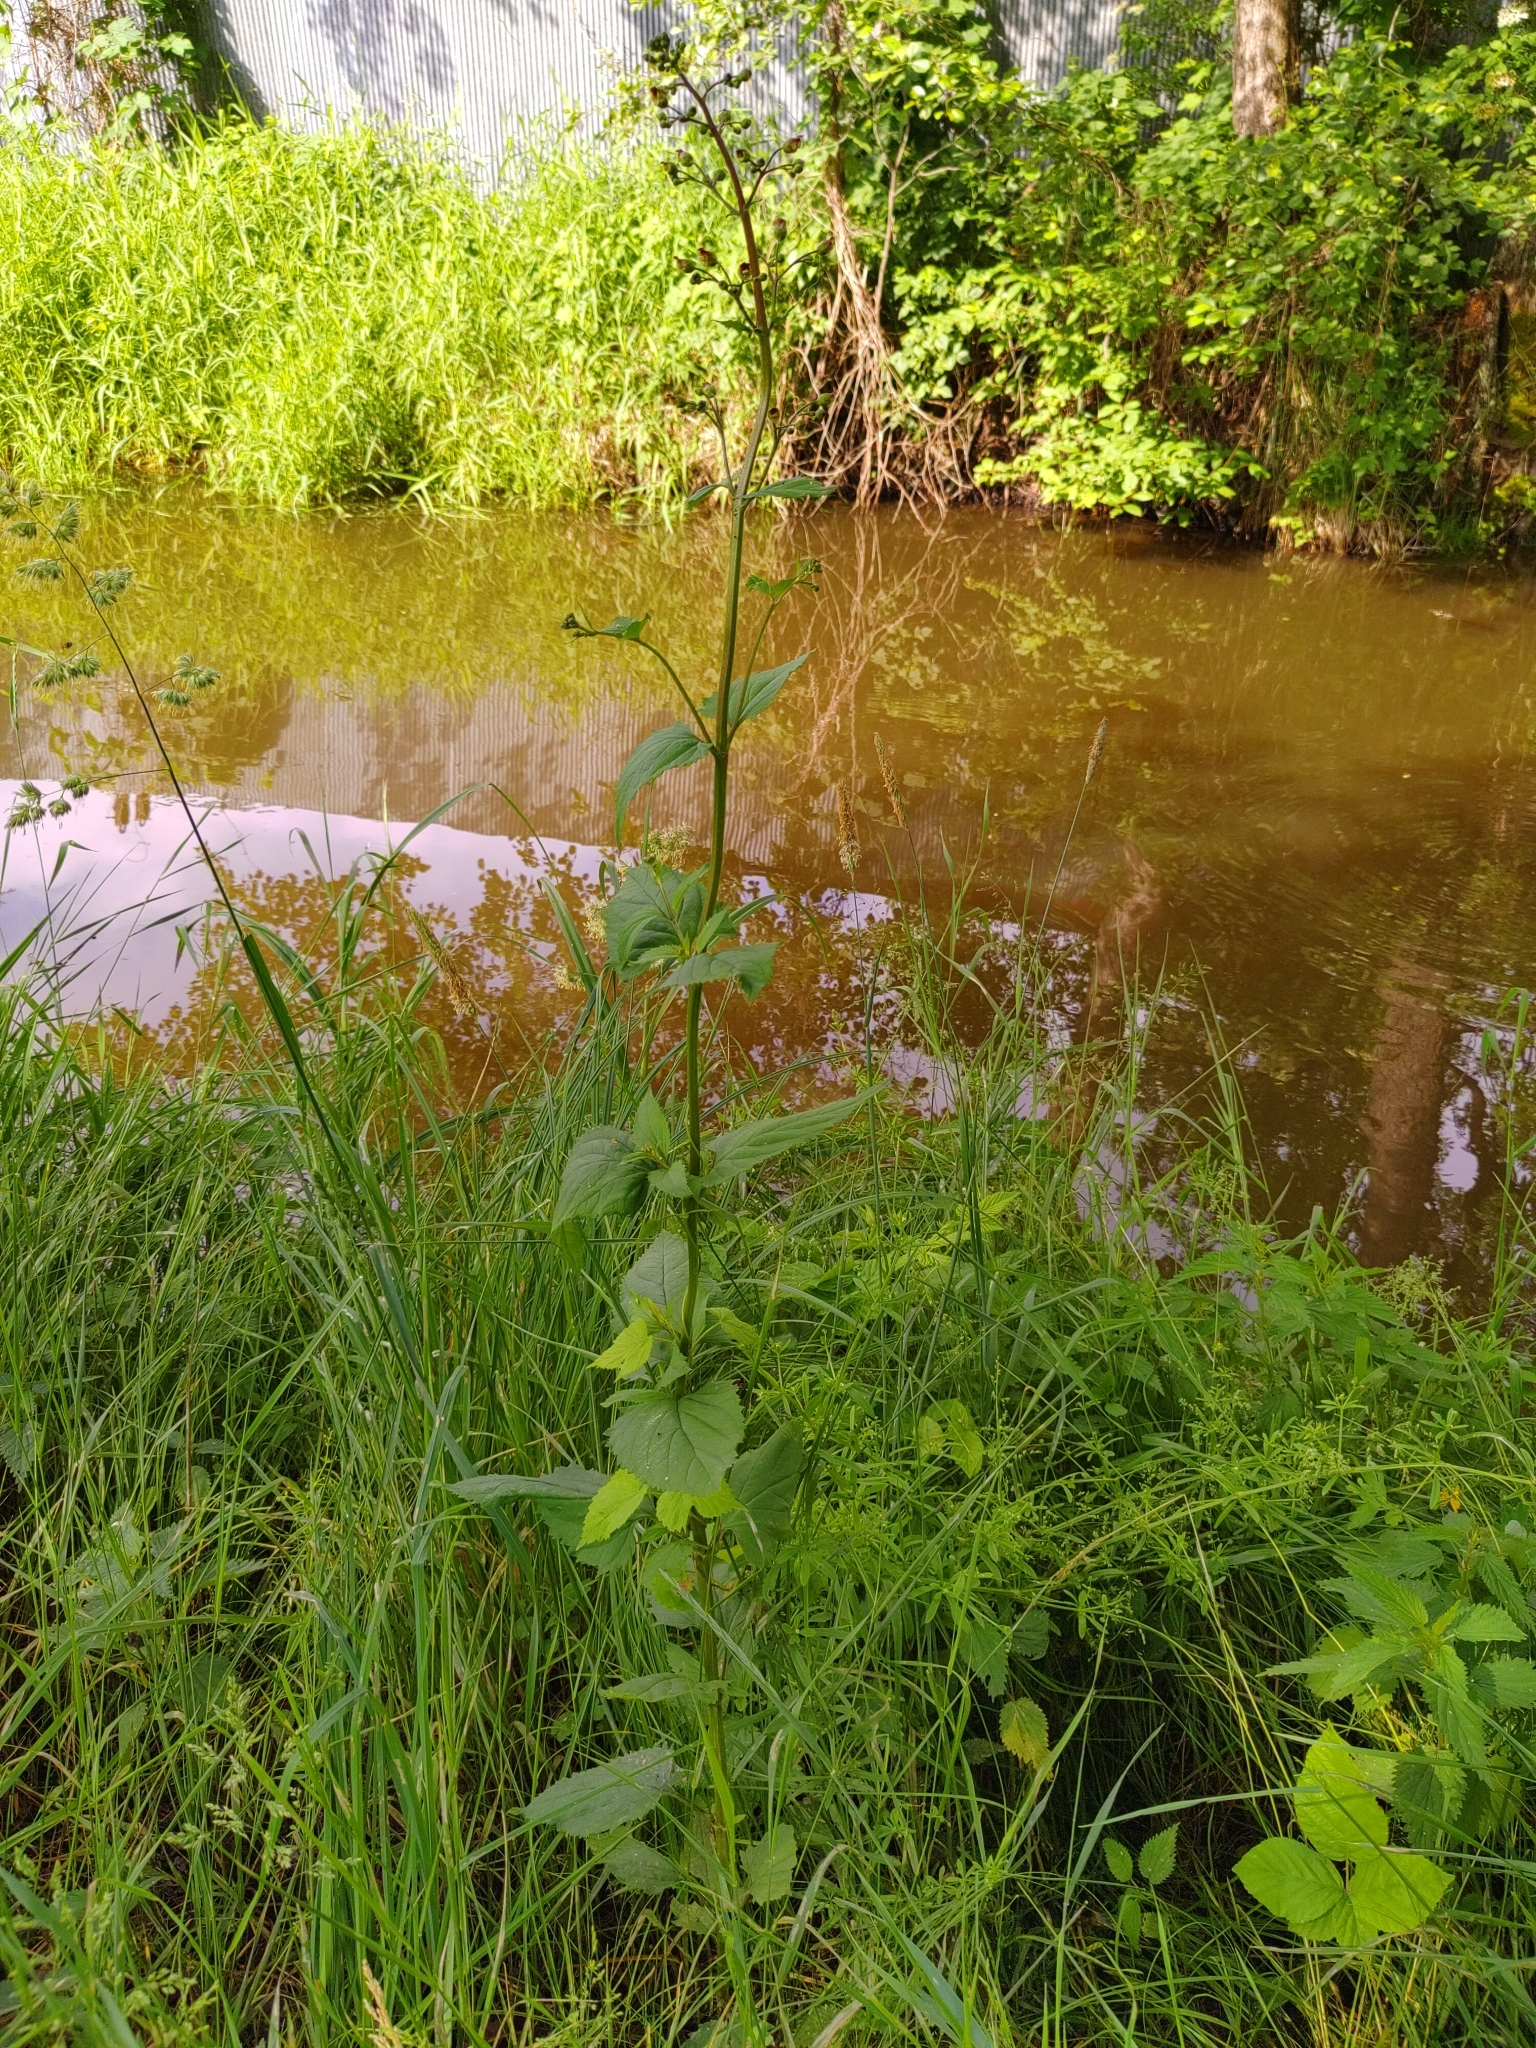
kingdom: Plantae
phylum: Tracheophyta
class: Magnoliopsida
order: Lamiales
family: Scrophulariaceae
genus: Scrophularia
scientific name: Scrophularia nodosa
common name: Common figwort
